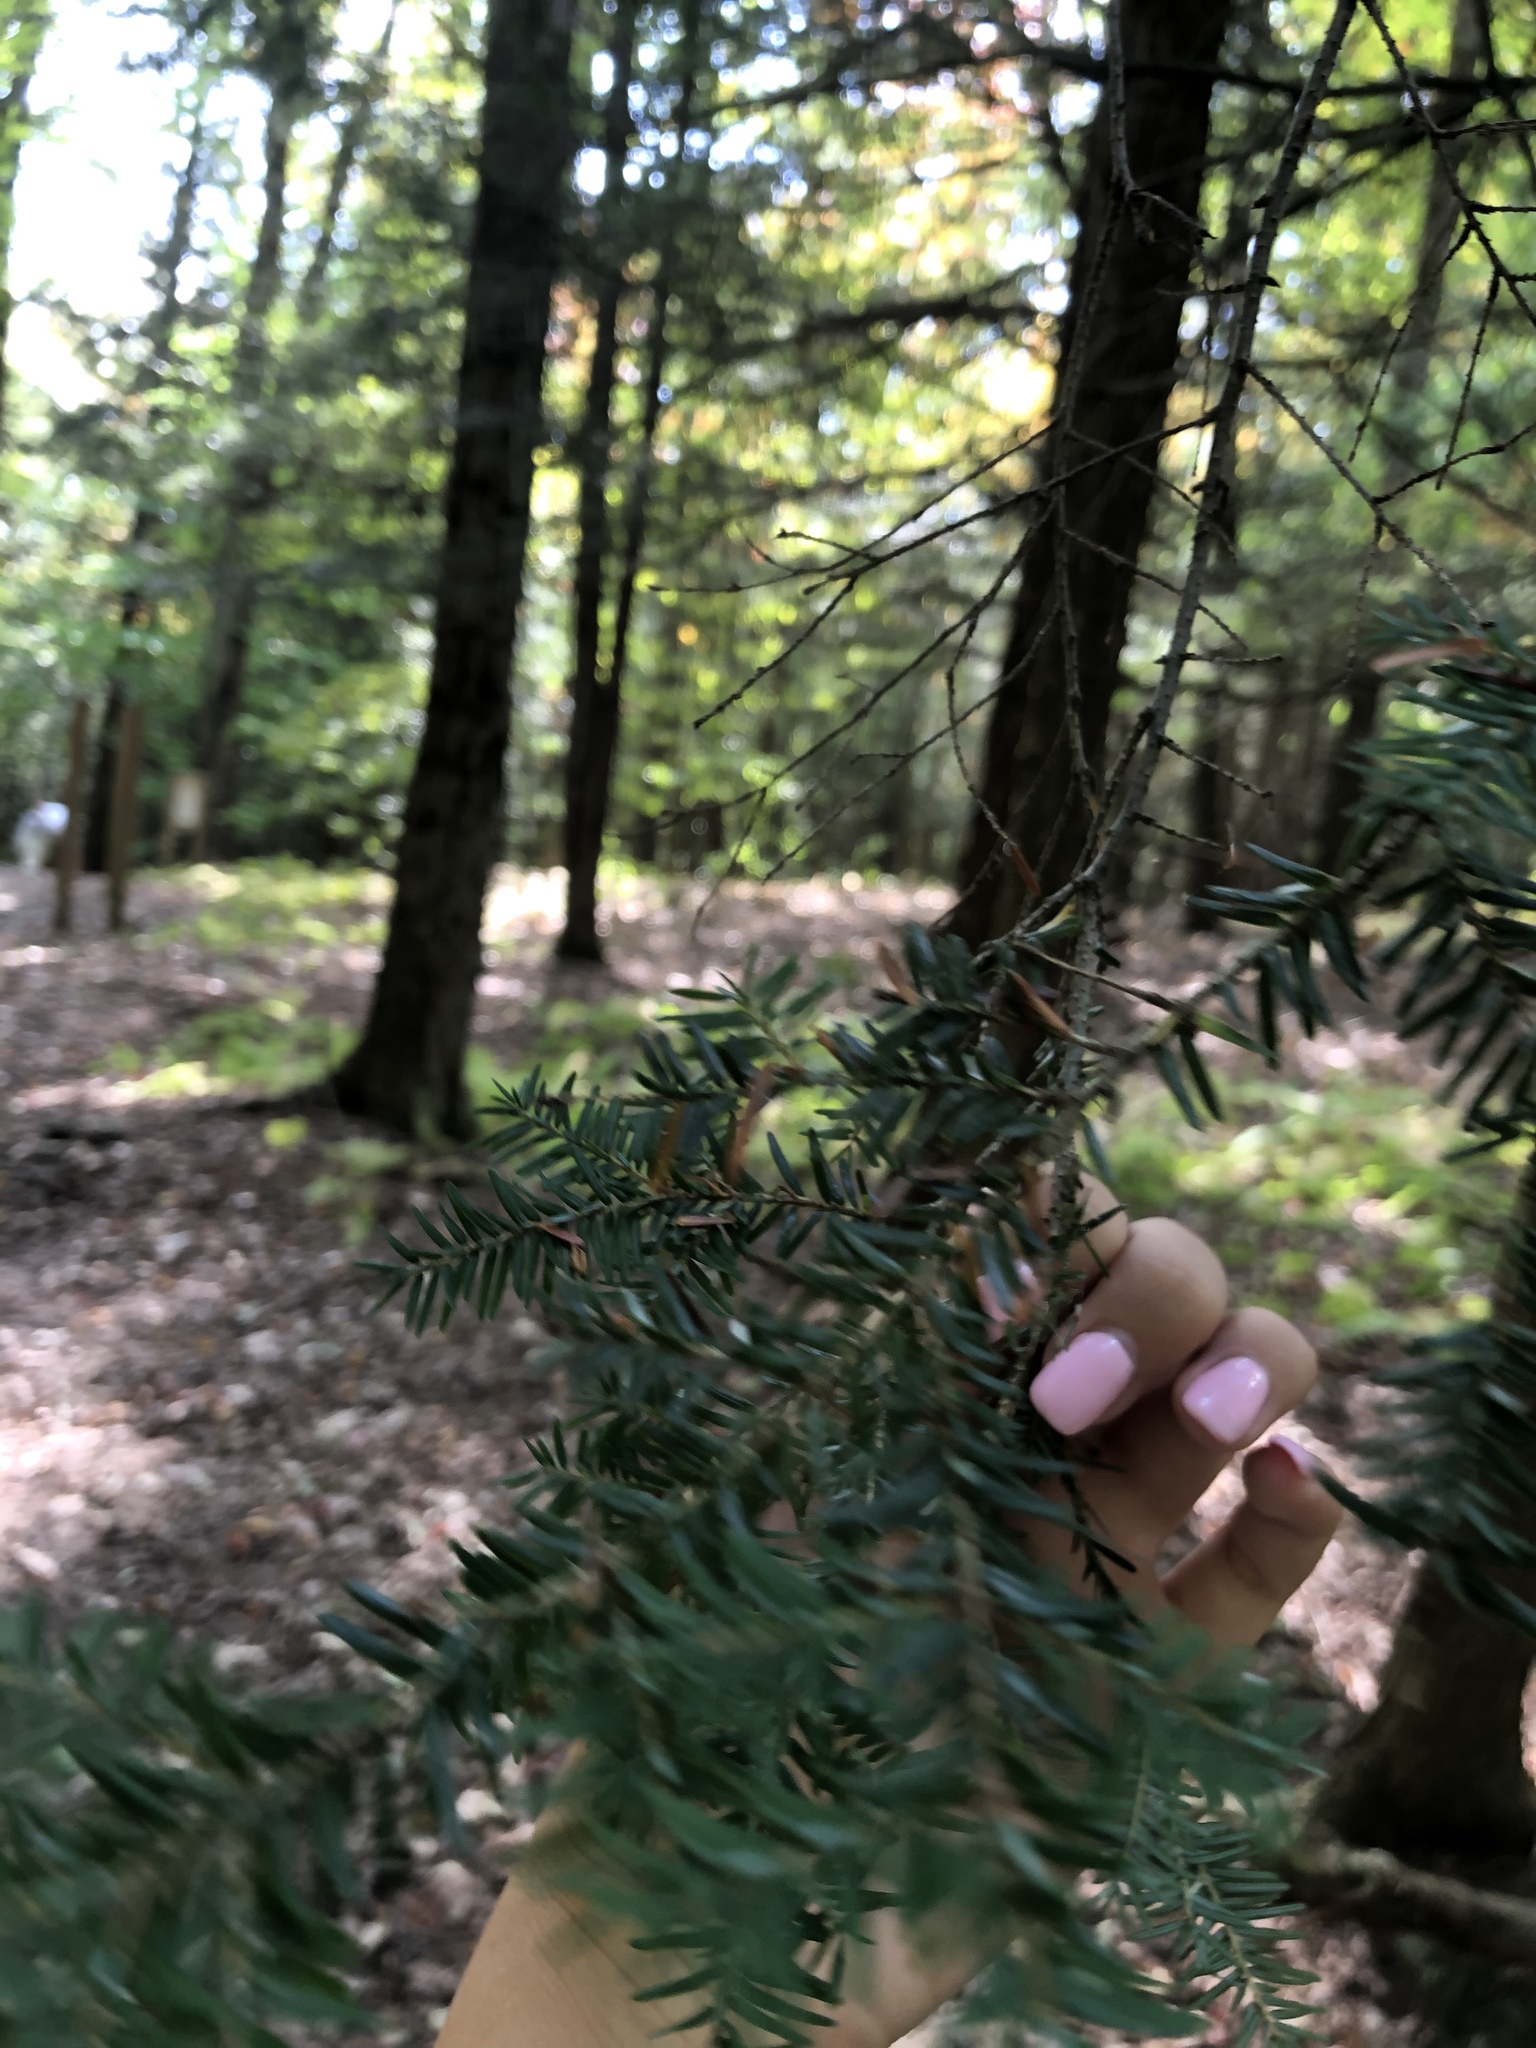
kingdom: Plantae
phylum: Tracheophyta
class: Pinopsida
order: Pinales
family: Pinaceae
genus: Tsuga
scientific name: Tsuga canadensis
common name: Eastern hemlock
